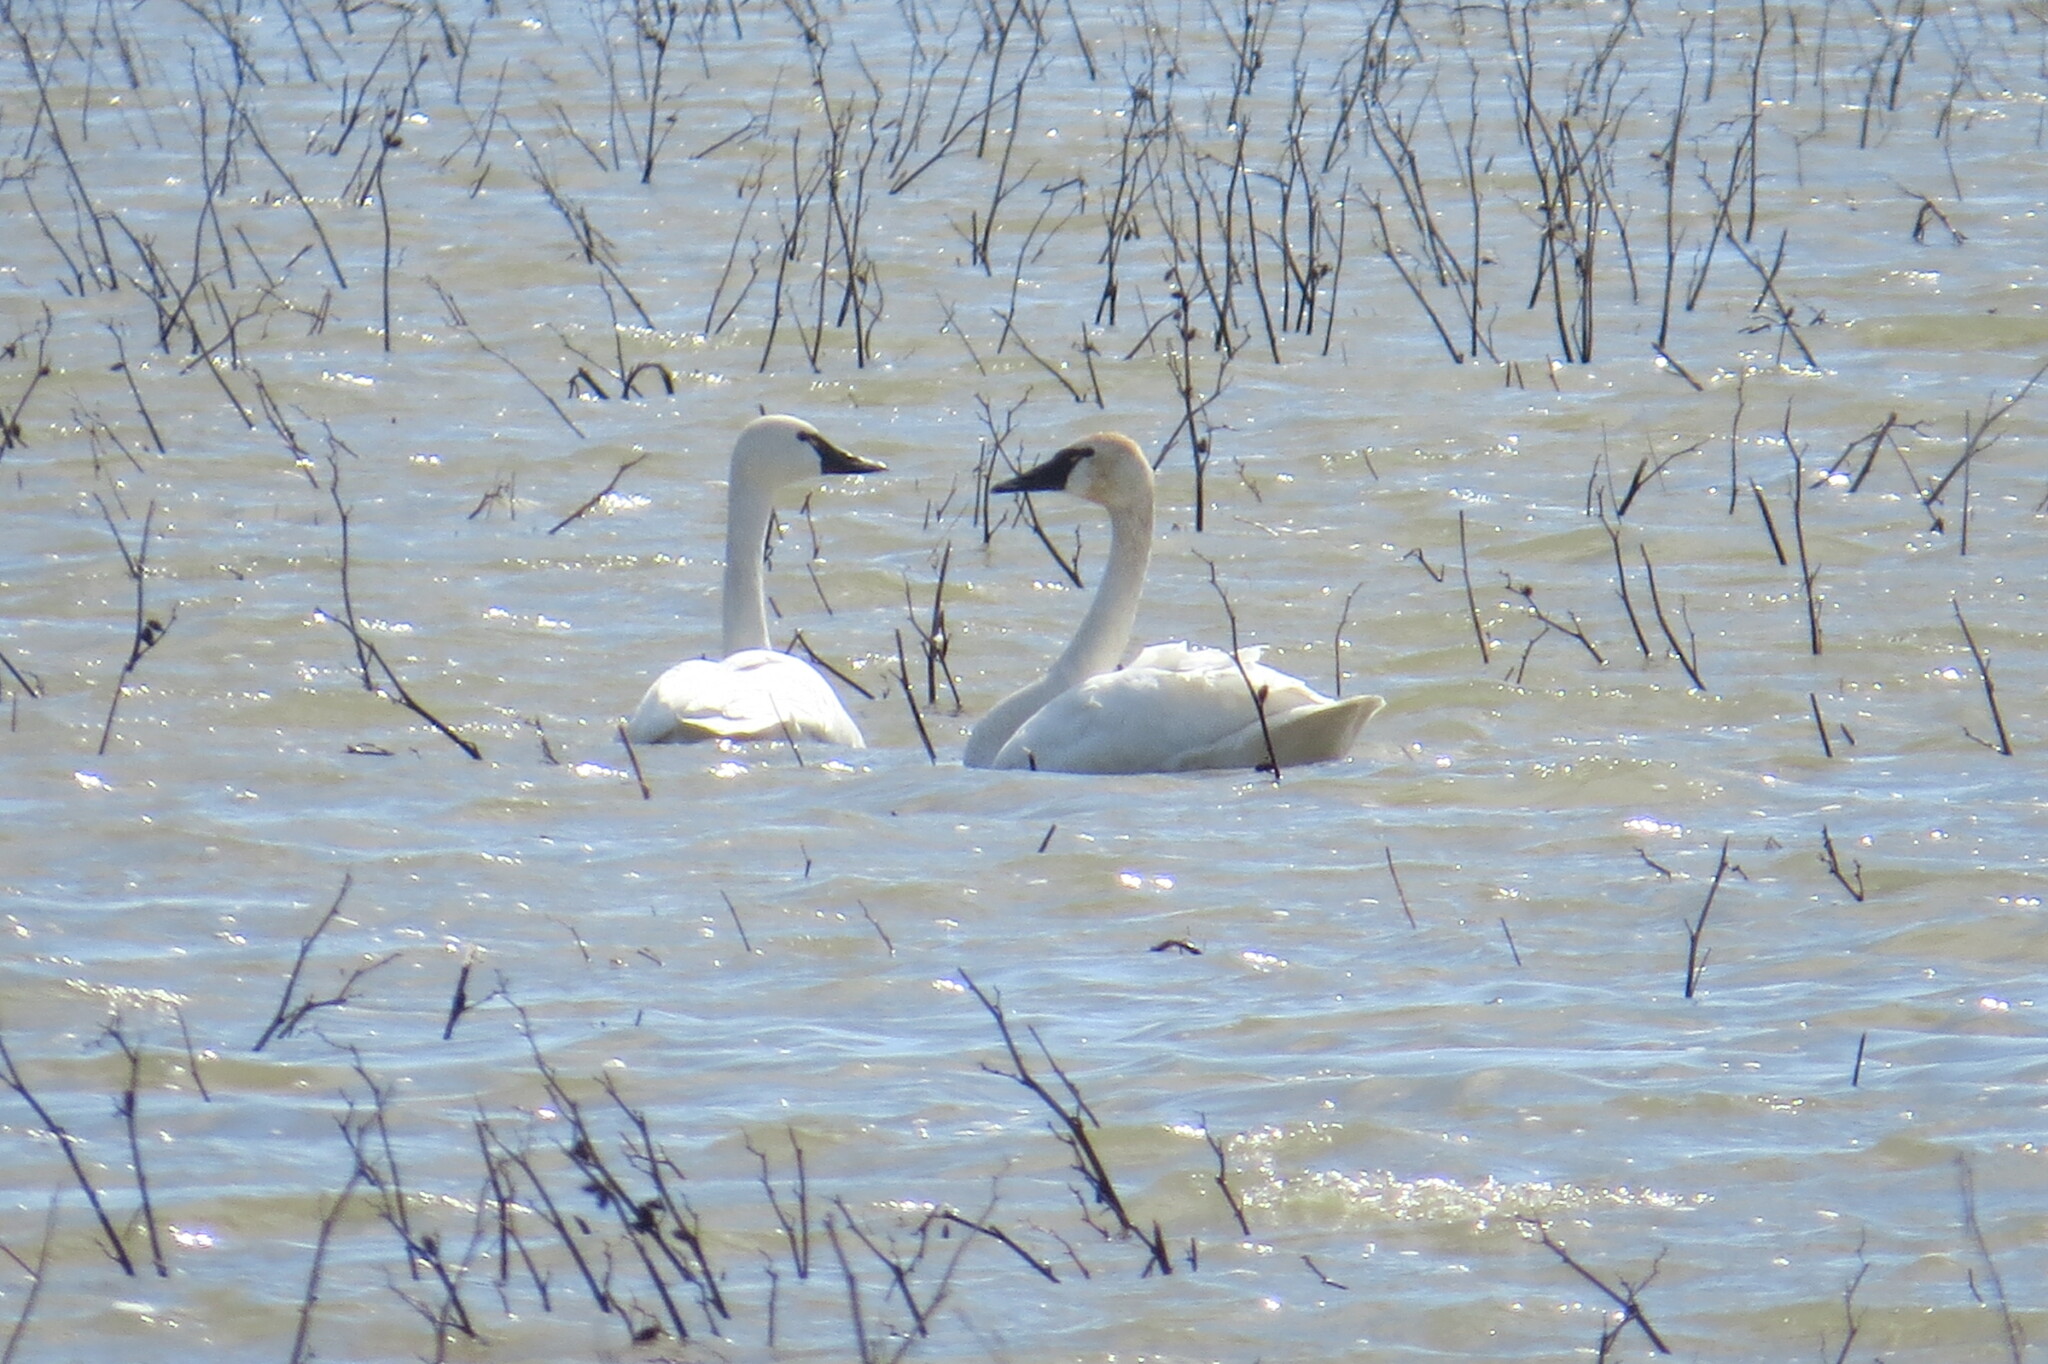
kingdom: Animalia
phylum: Chordata
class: Aves
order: Anseriformes
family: Anatidae
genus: Cygnus
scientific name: Cygnus columbianus
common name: Tundra swan
